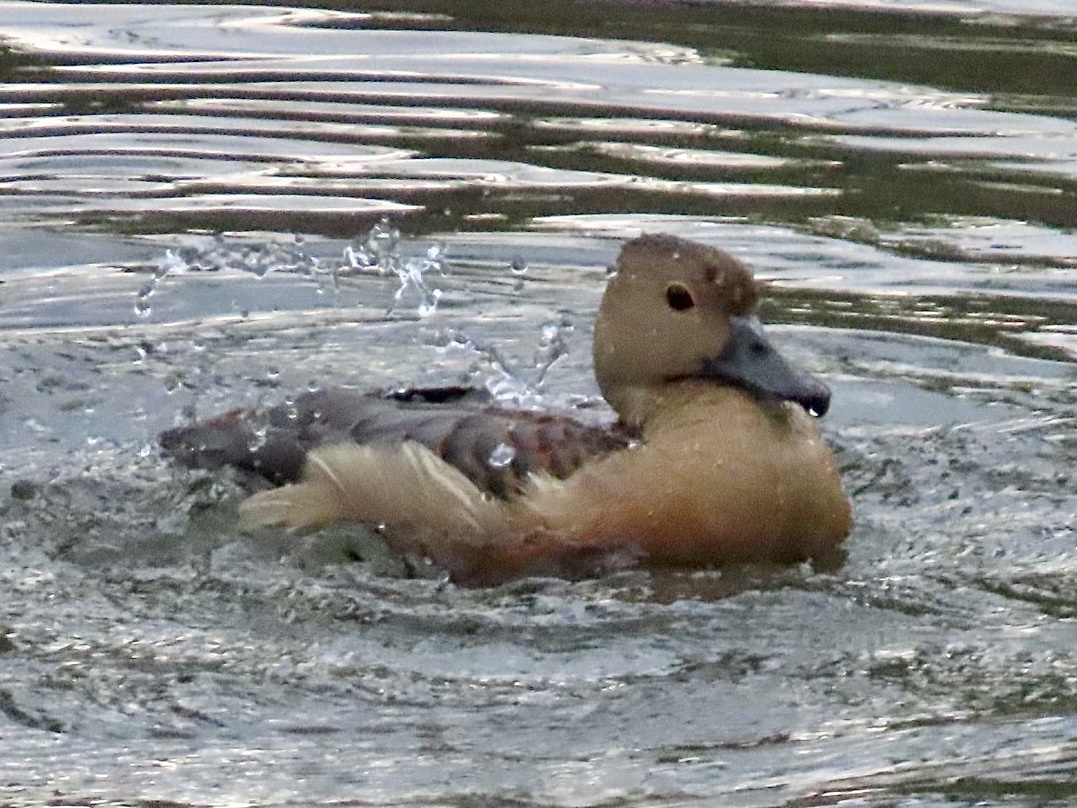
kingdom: Animalia
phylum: Chordata
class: Aves
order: Anseriformes
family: Anatidae
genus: Dendrocygna
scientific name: Dendrocygna javanica
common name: Lesser whistling-duck
